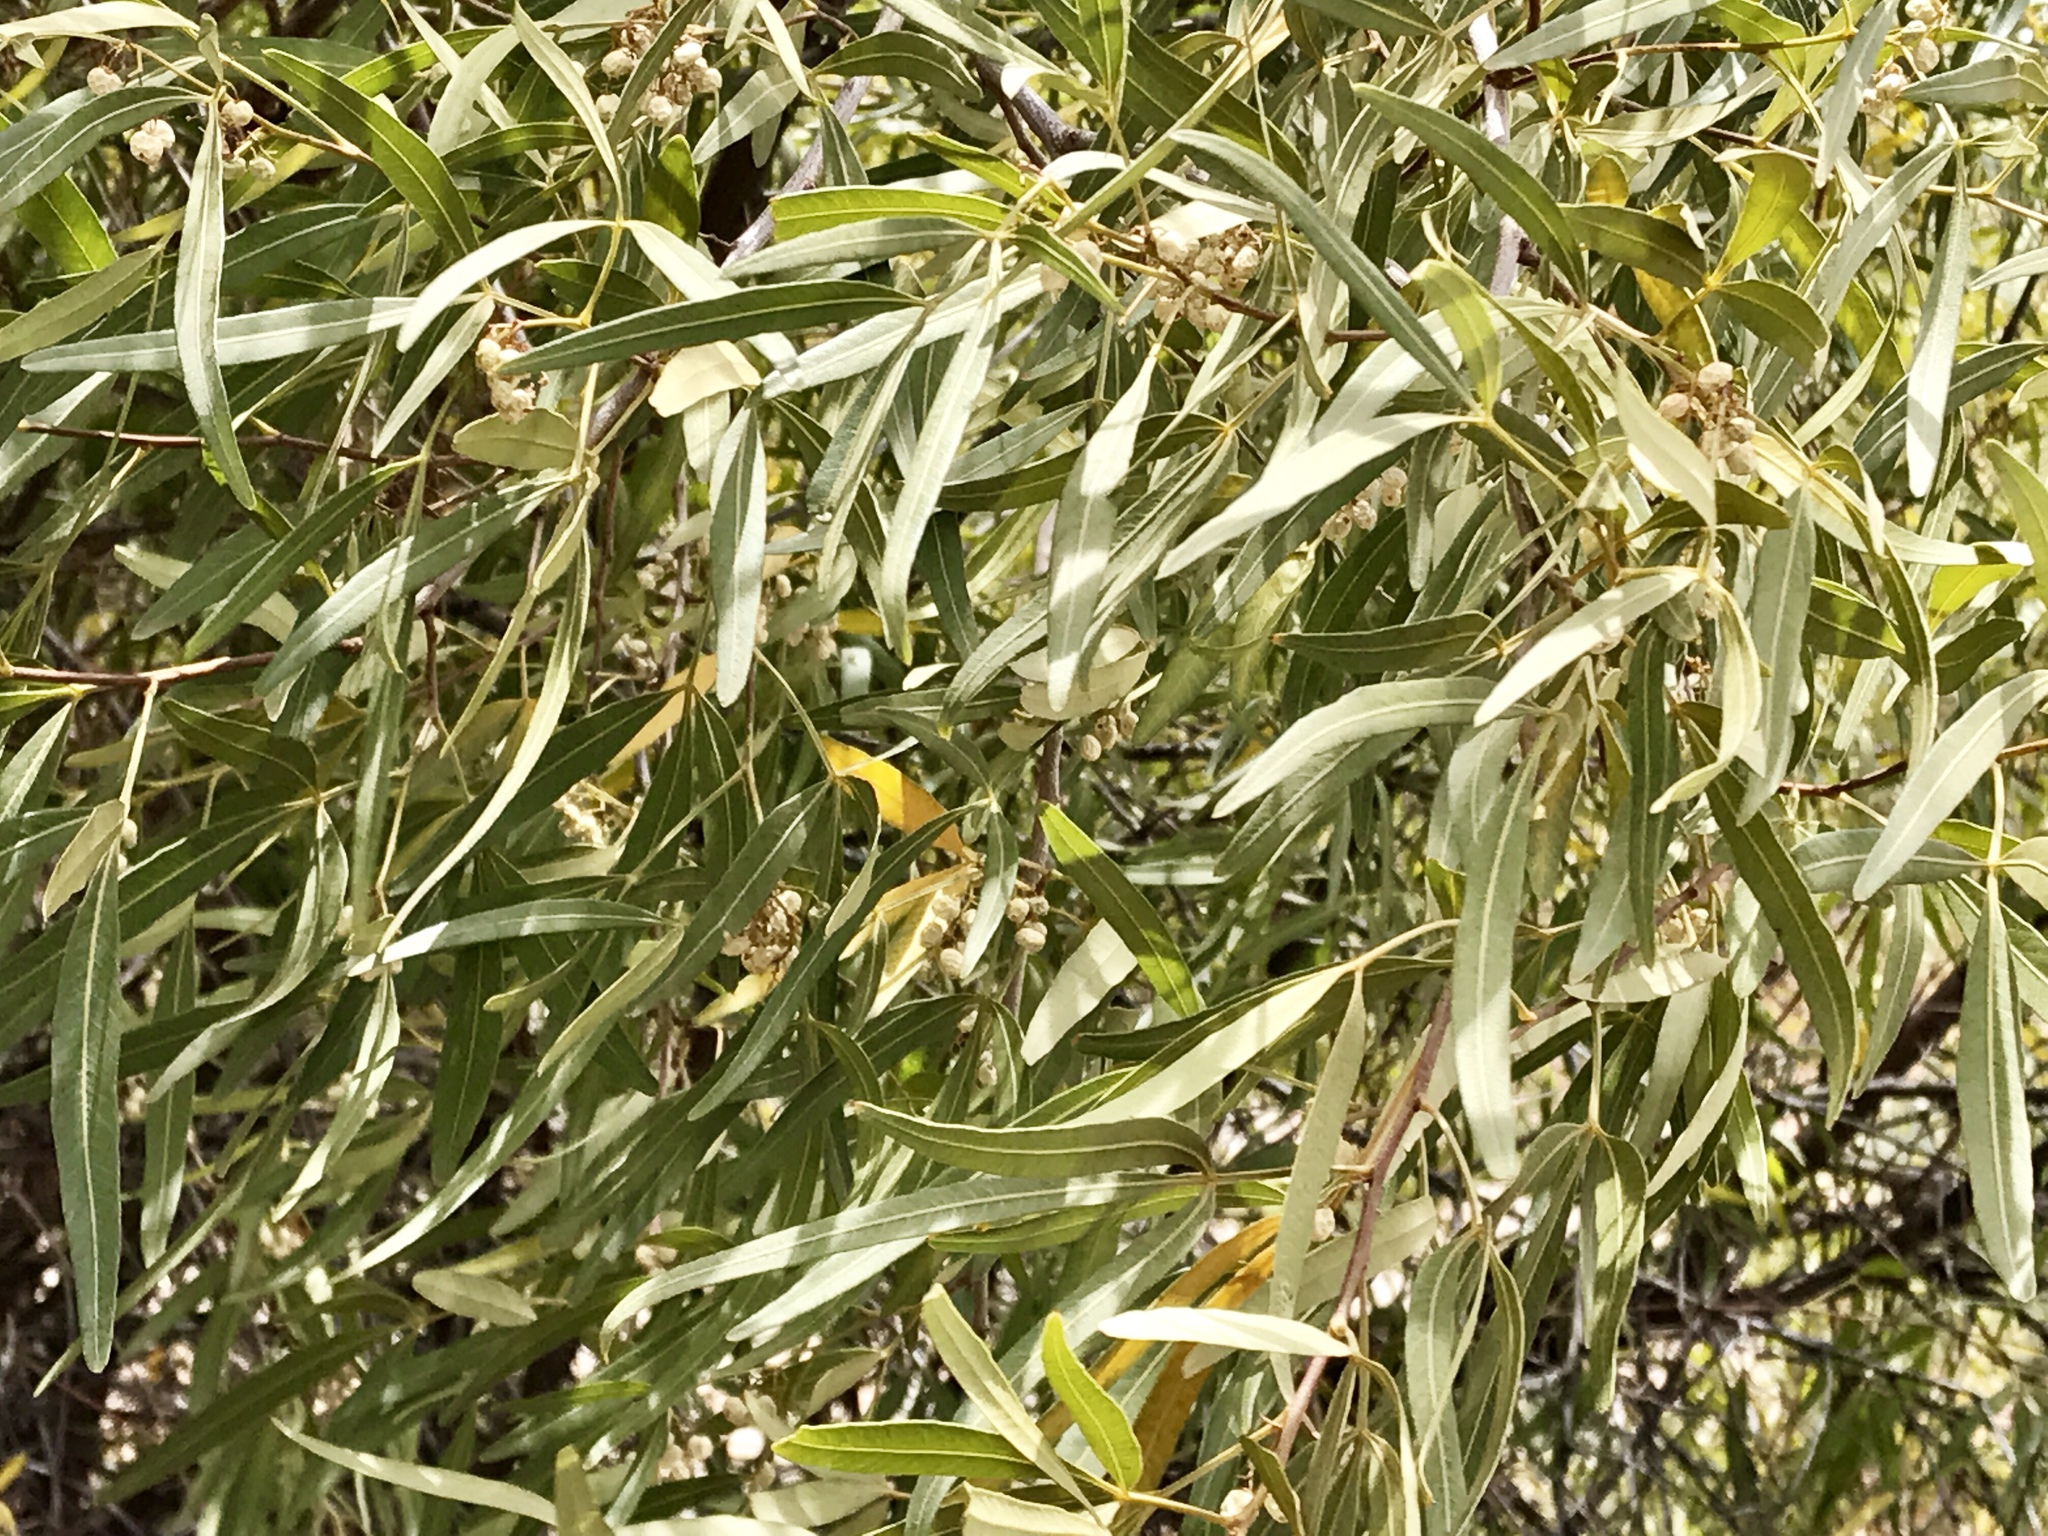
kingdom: Plantae
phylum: Tracheophyta
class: Magnoliopsida
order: Sapindales
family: Anacardiaceae
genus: Searsia
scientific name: Searsia lancea
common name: Cashew
